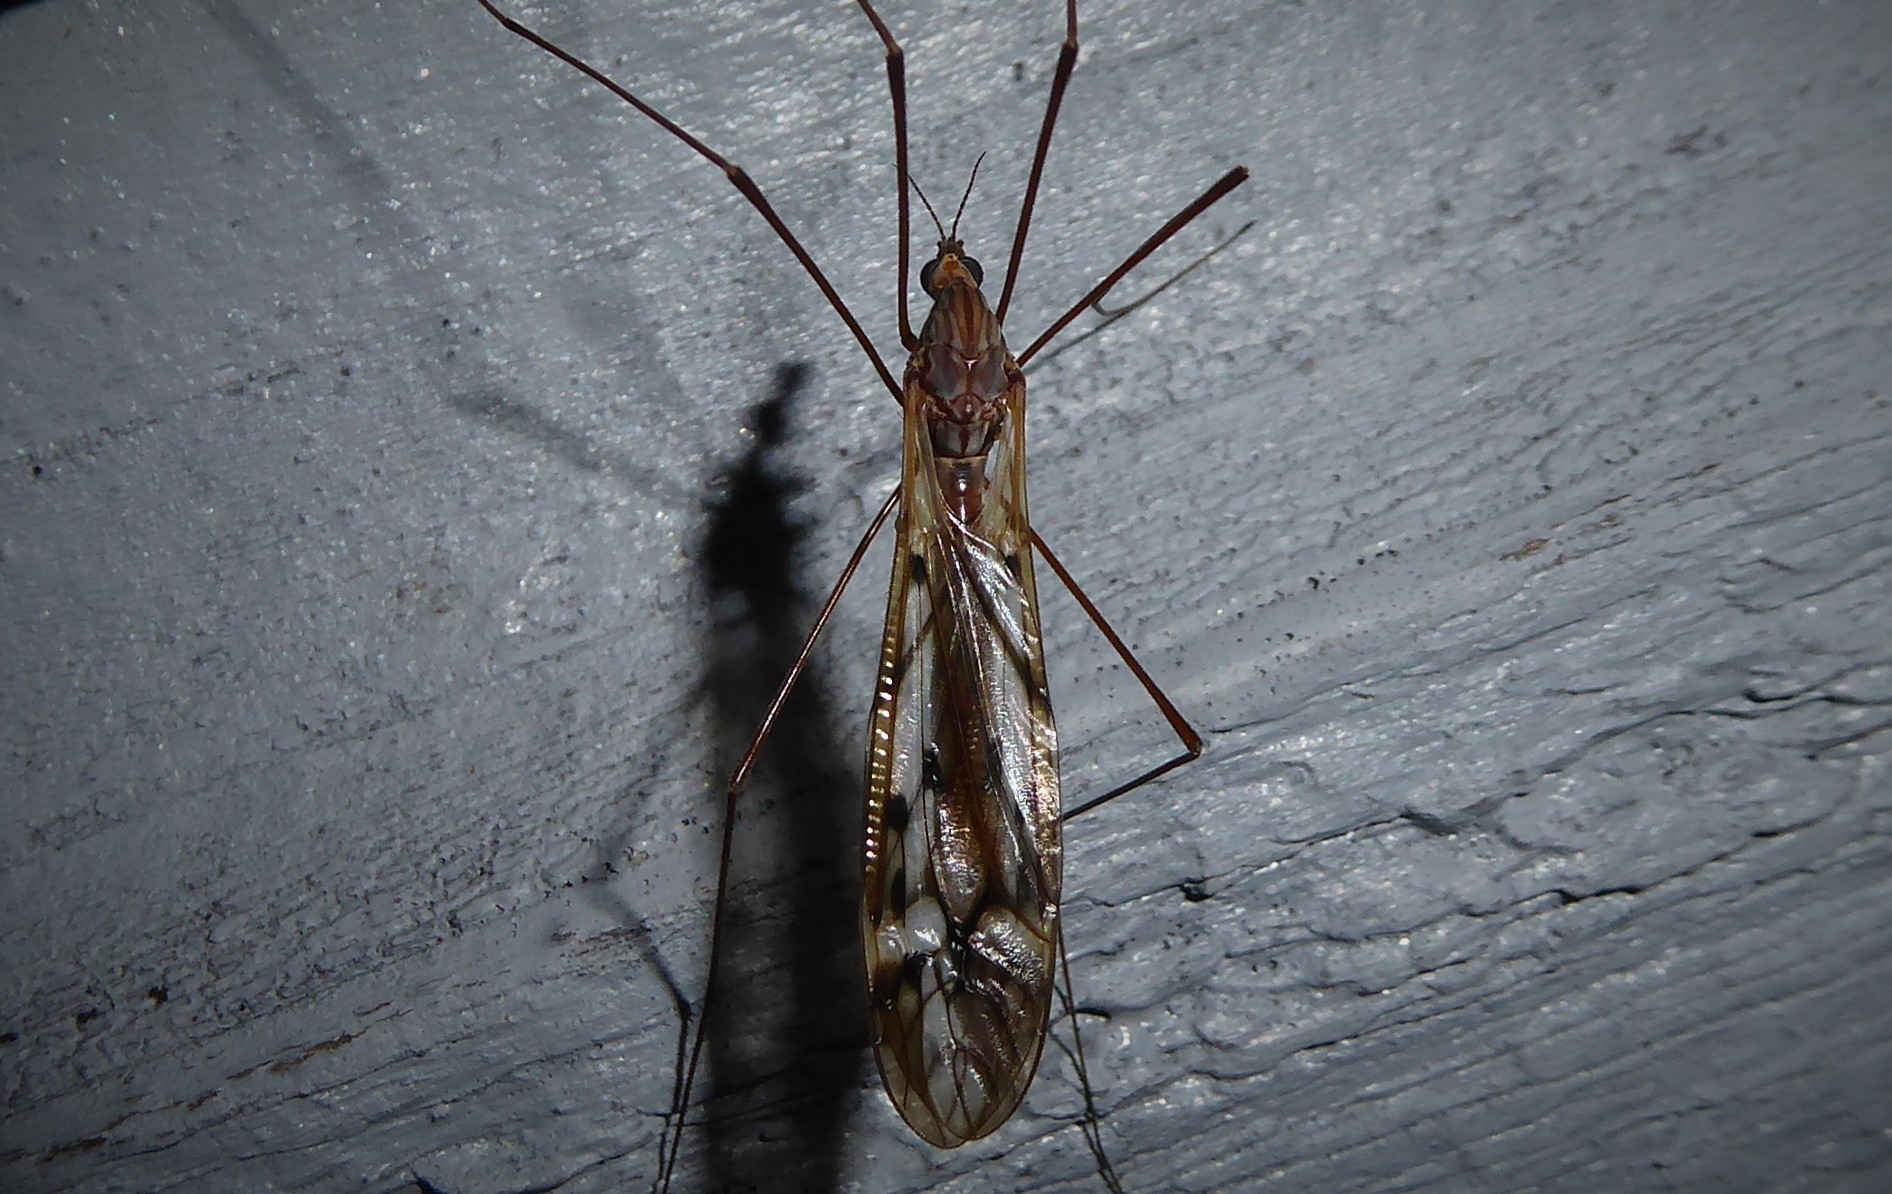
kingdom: Animalia
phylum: Arthropoda
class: Insecta
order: Diptera
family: Tipulidae
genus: Zelandotipula
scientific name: Zelandotipula novarae
